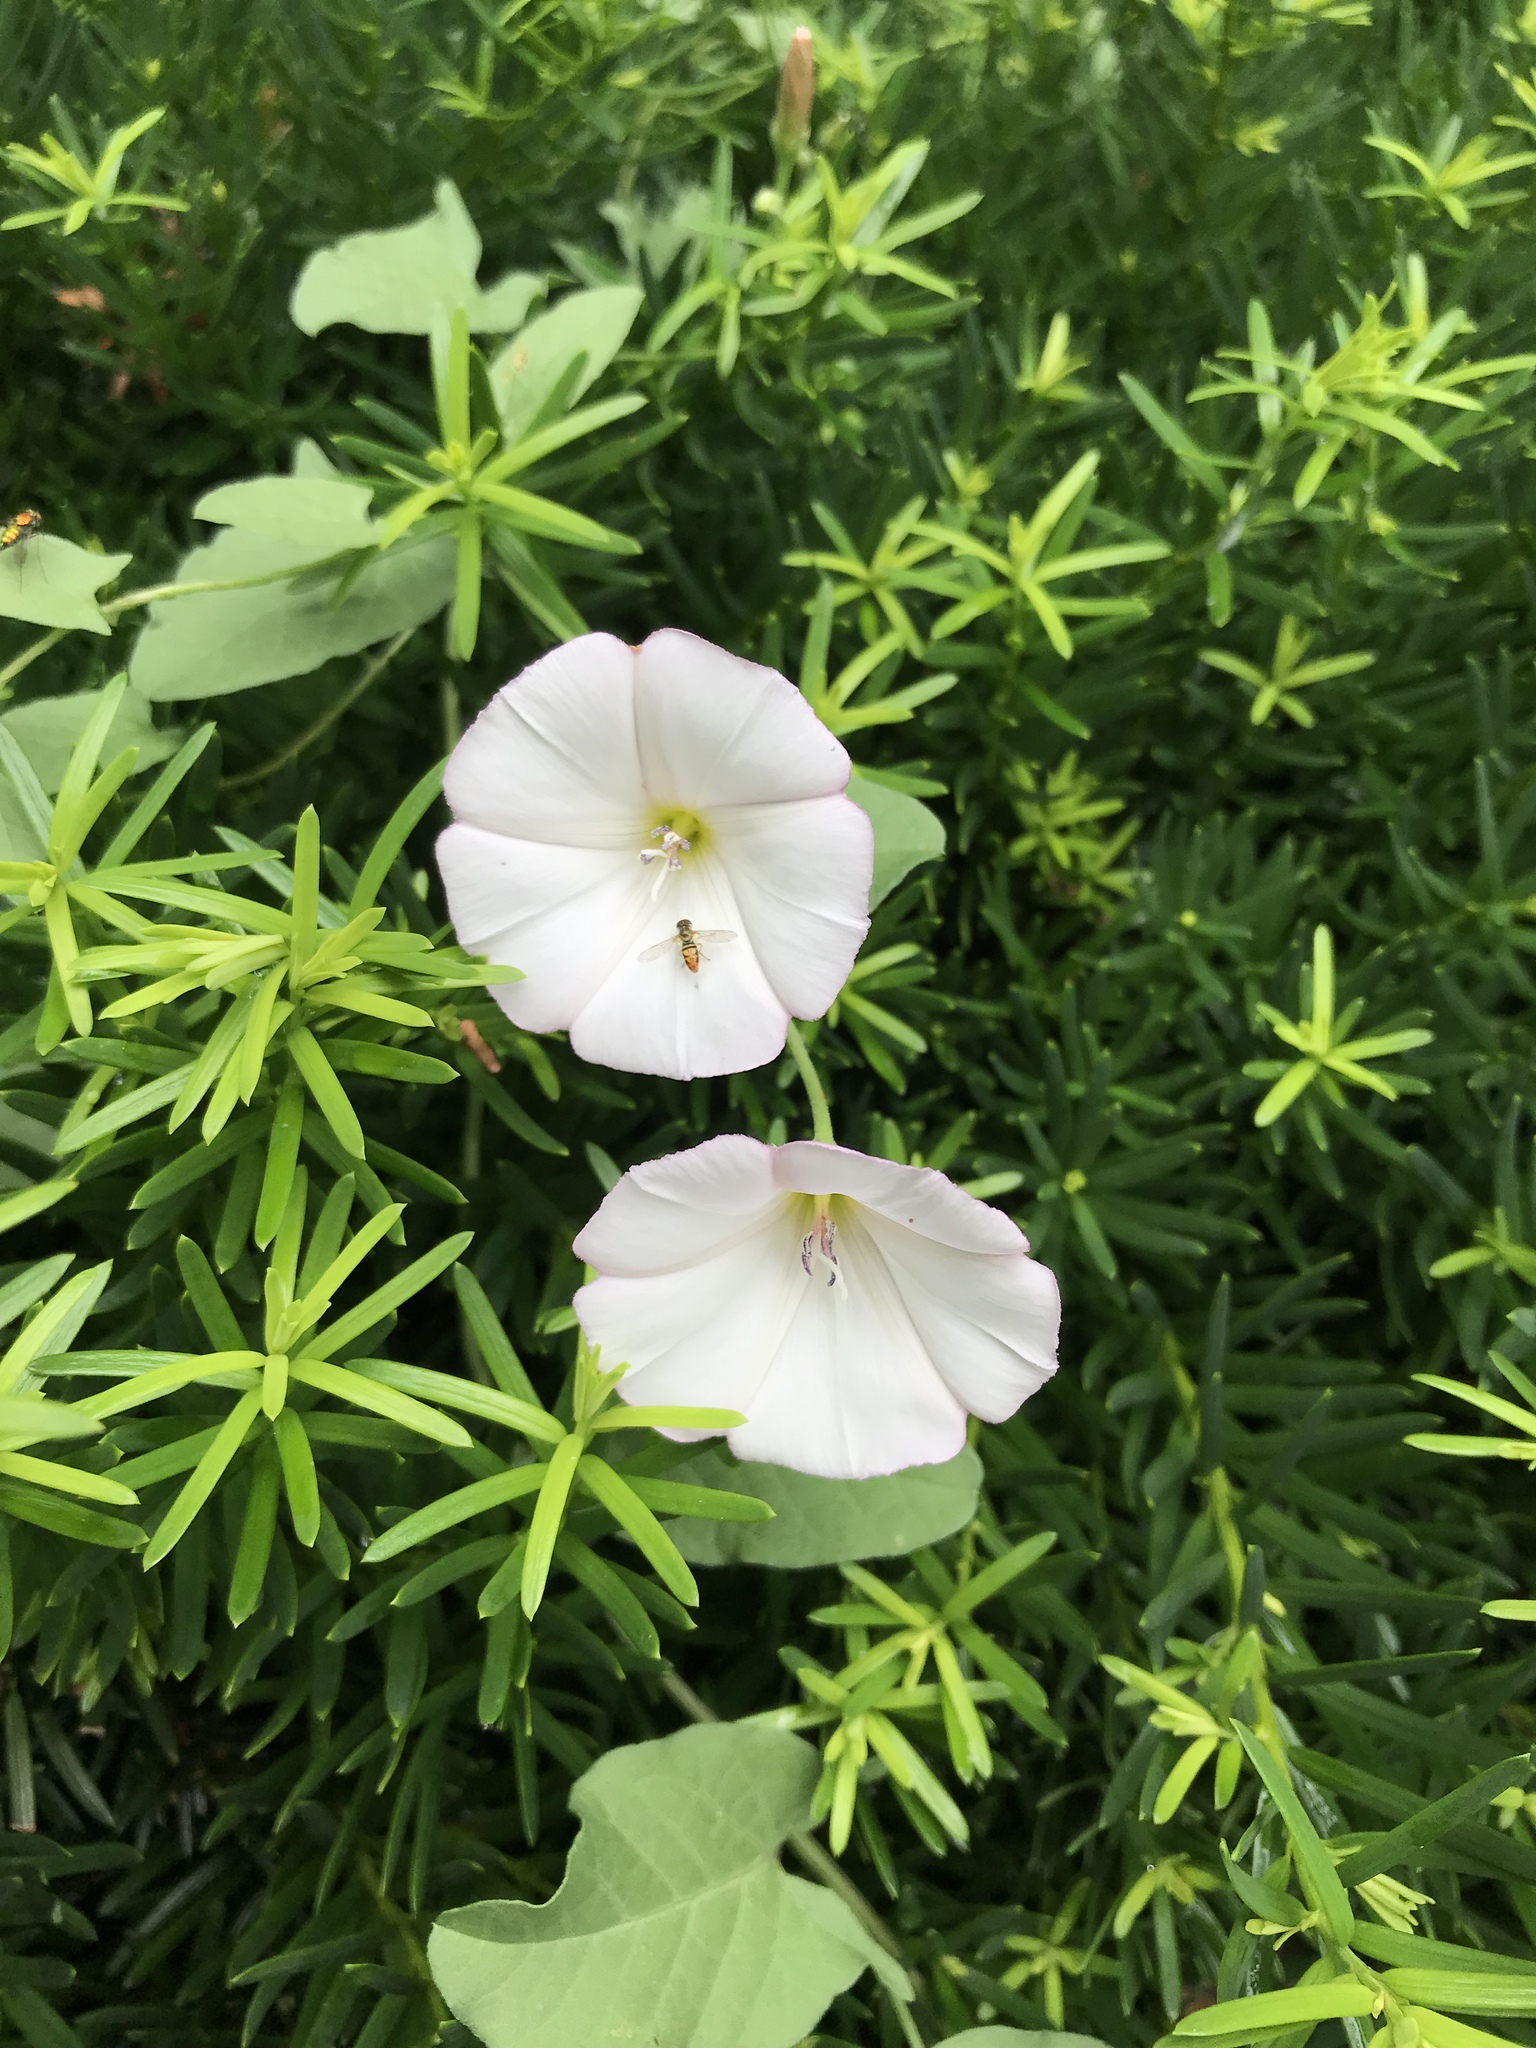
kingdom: Plantae
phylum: Tracheophyta
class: Magnoliopsida
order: Solanales
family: Convolvulaceae
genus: Convolvulus
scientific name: Convolvulus arvensis
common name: Field bindweed
